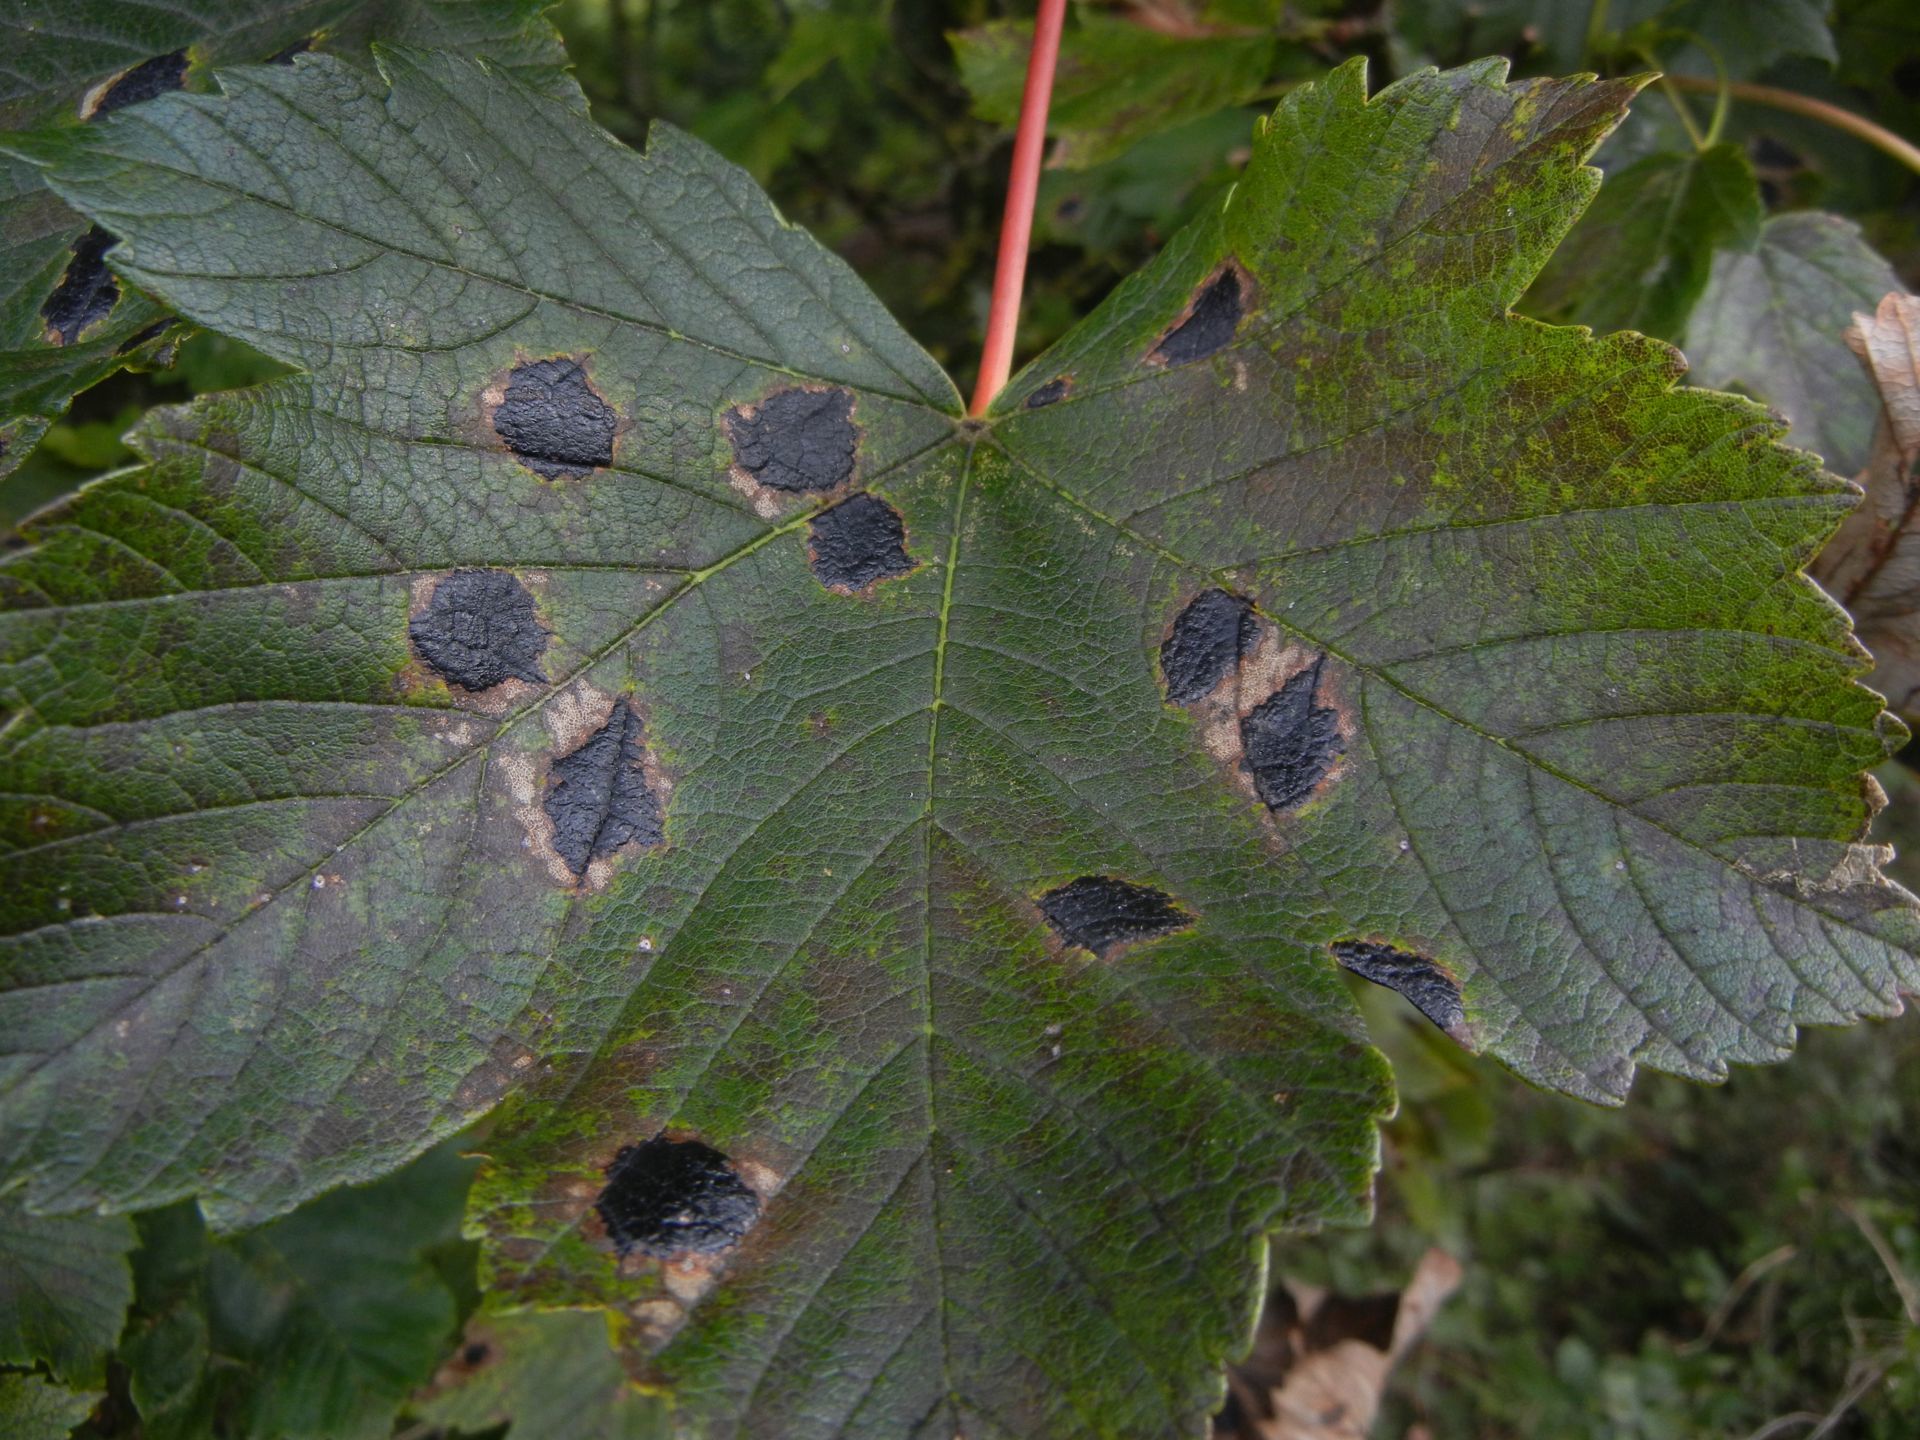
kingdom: Fungi
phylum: Ascomycota
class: Leotiomycetes
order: Rhytismatales
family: Rhytismataceae
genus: Rhytisma
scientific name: Rhytisma acerinum
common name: European tar spot
